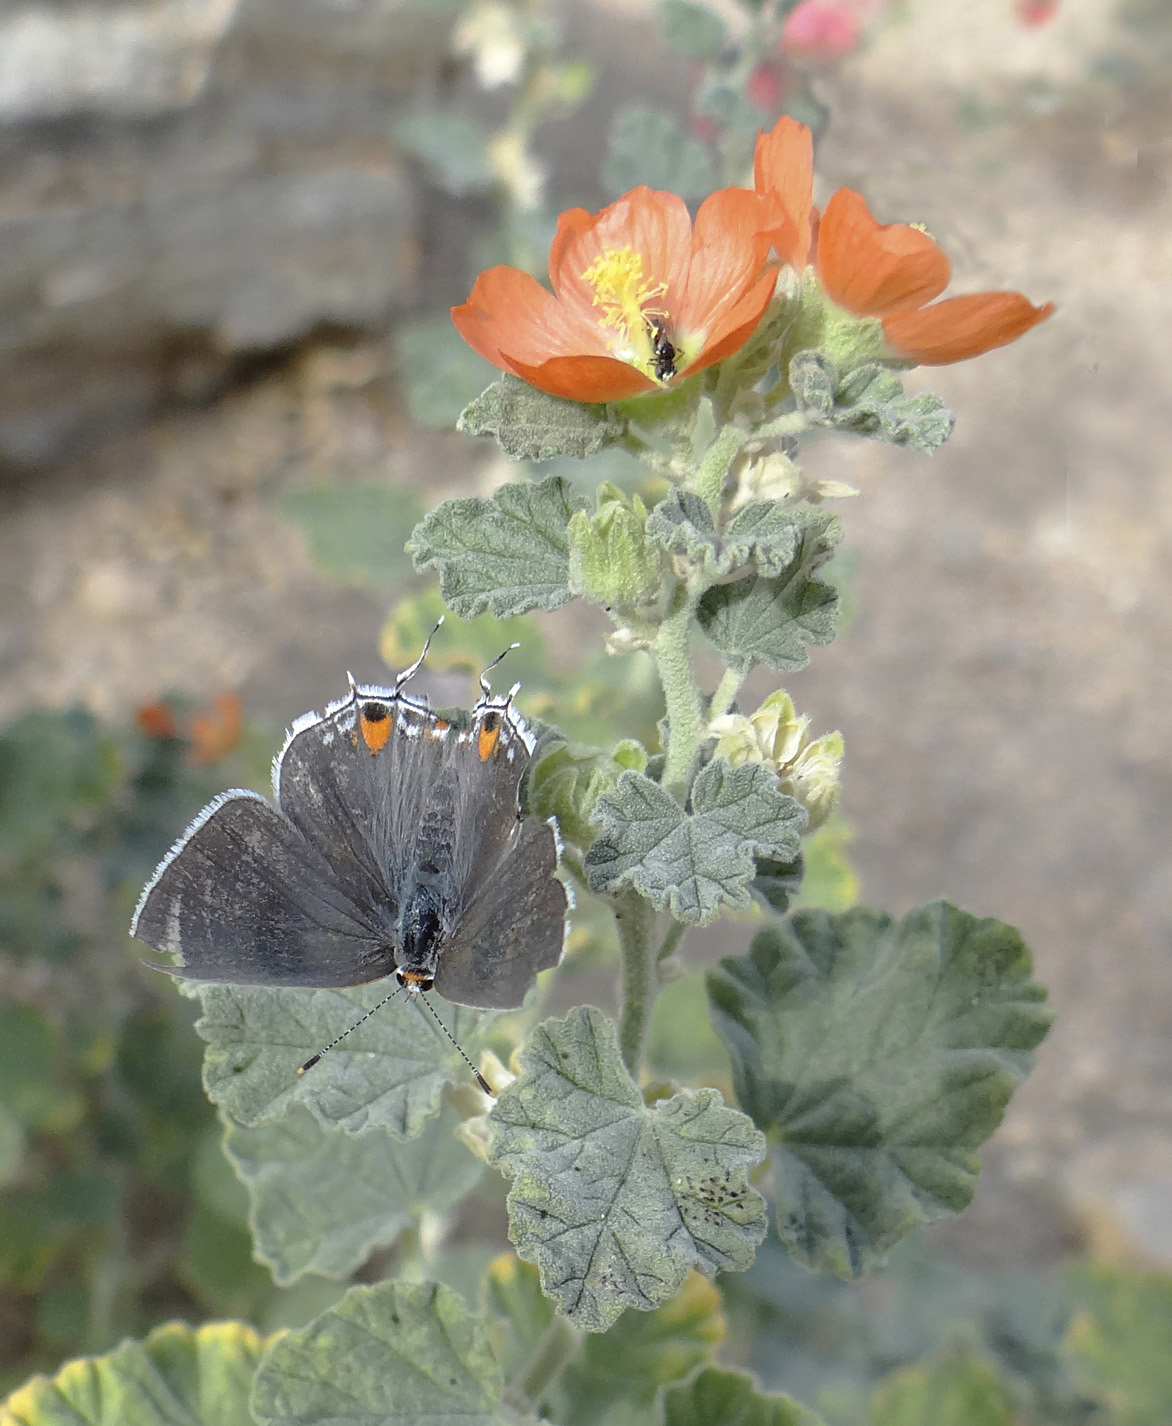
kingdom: Animalia
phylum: Arthropoda
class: Insecta
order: Lepidoptera
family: Lycaenidae
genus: Strymon
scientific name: Strymon melinus
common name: Gray hairstreak
